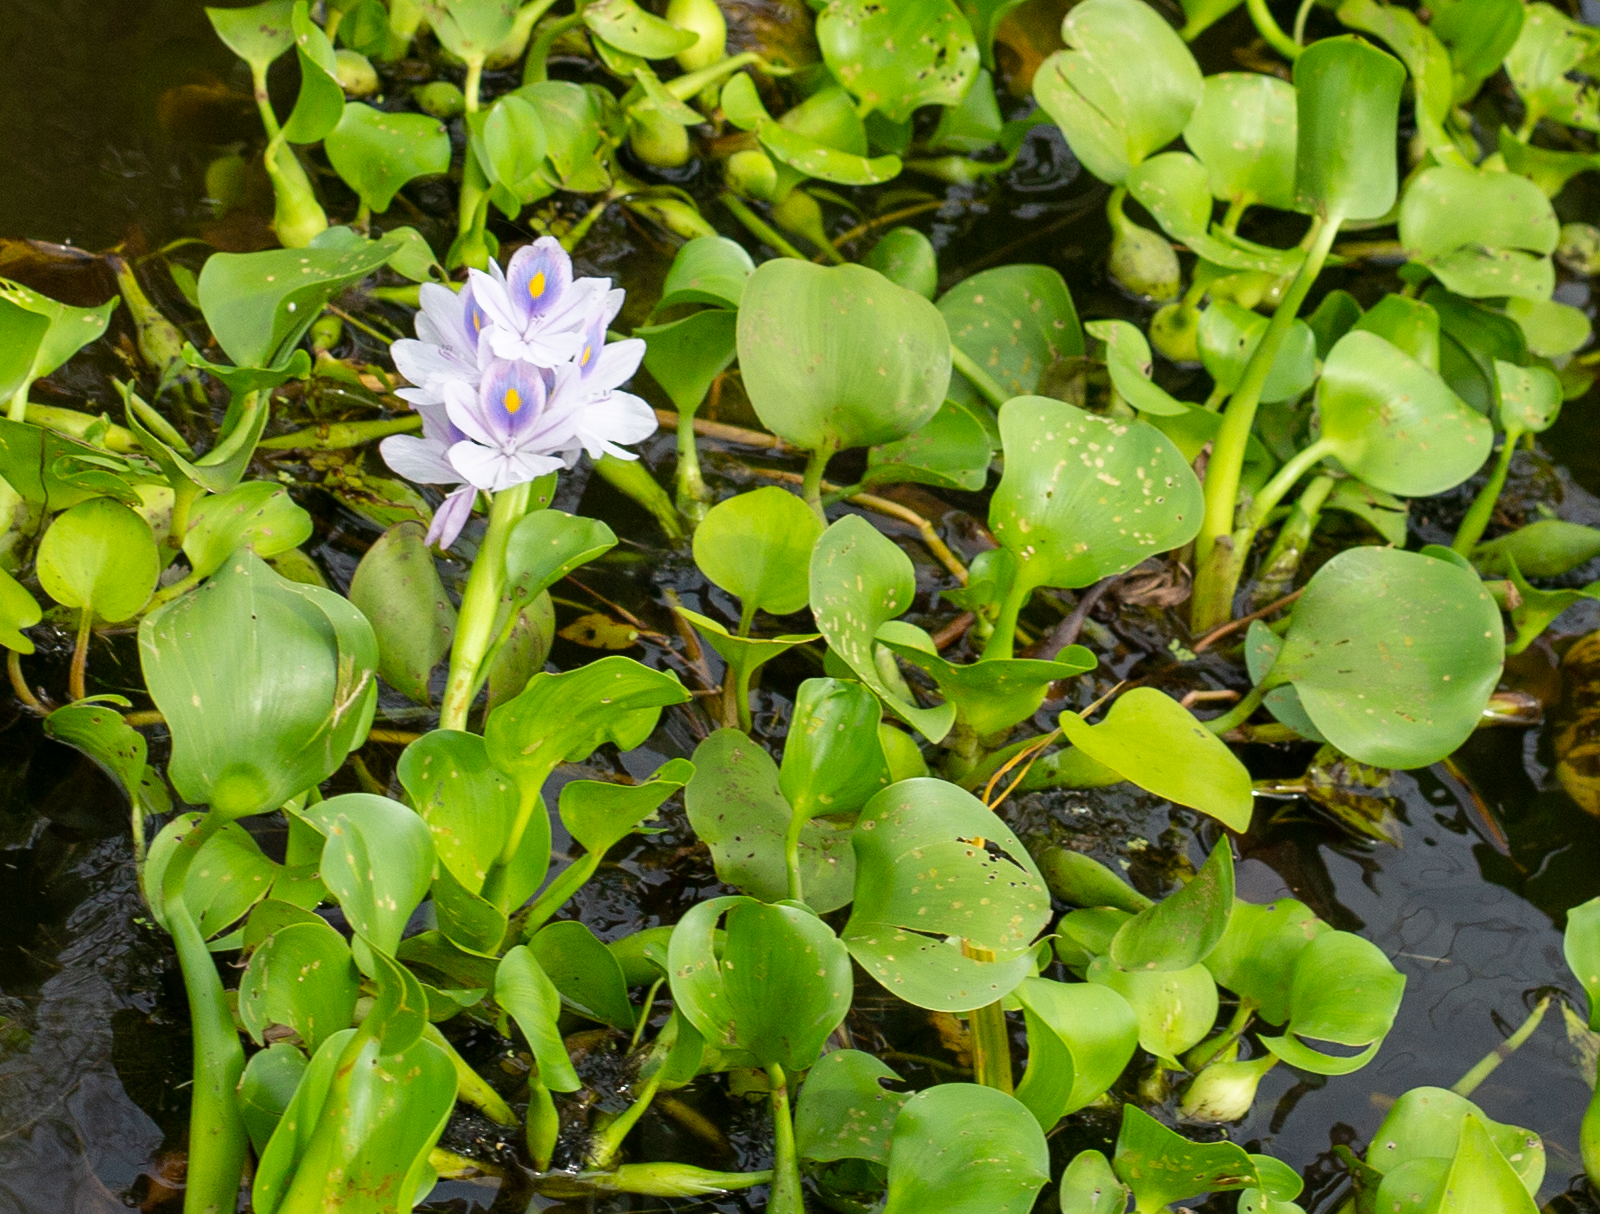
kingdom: Plantae
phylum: Tracheophyta
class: Liliopsida
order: Commelinales
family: Pontederiaceae
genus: Pontederia
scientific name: Pontederia crassipes
